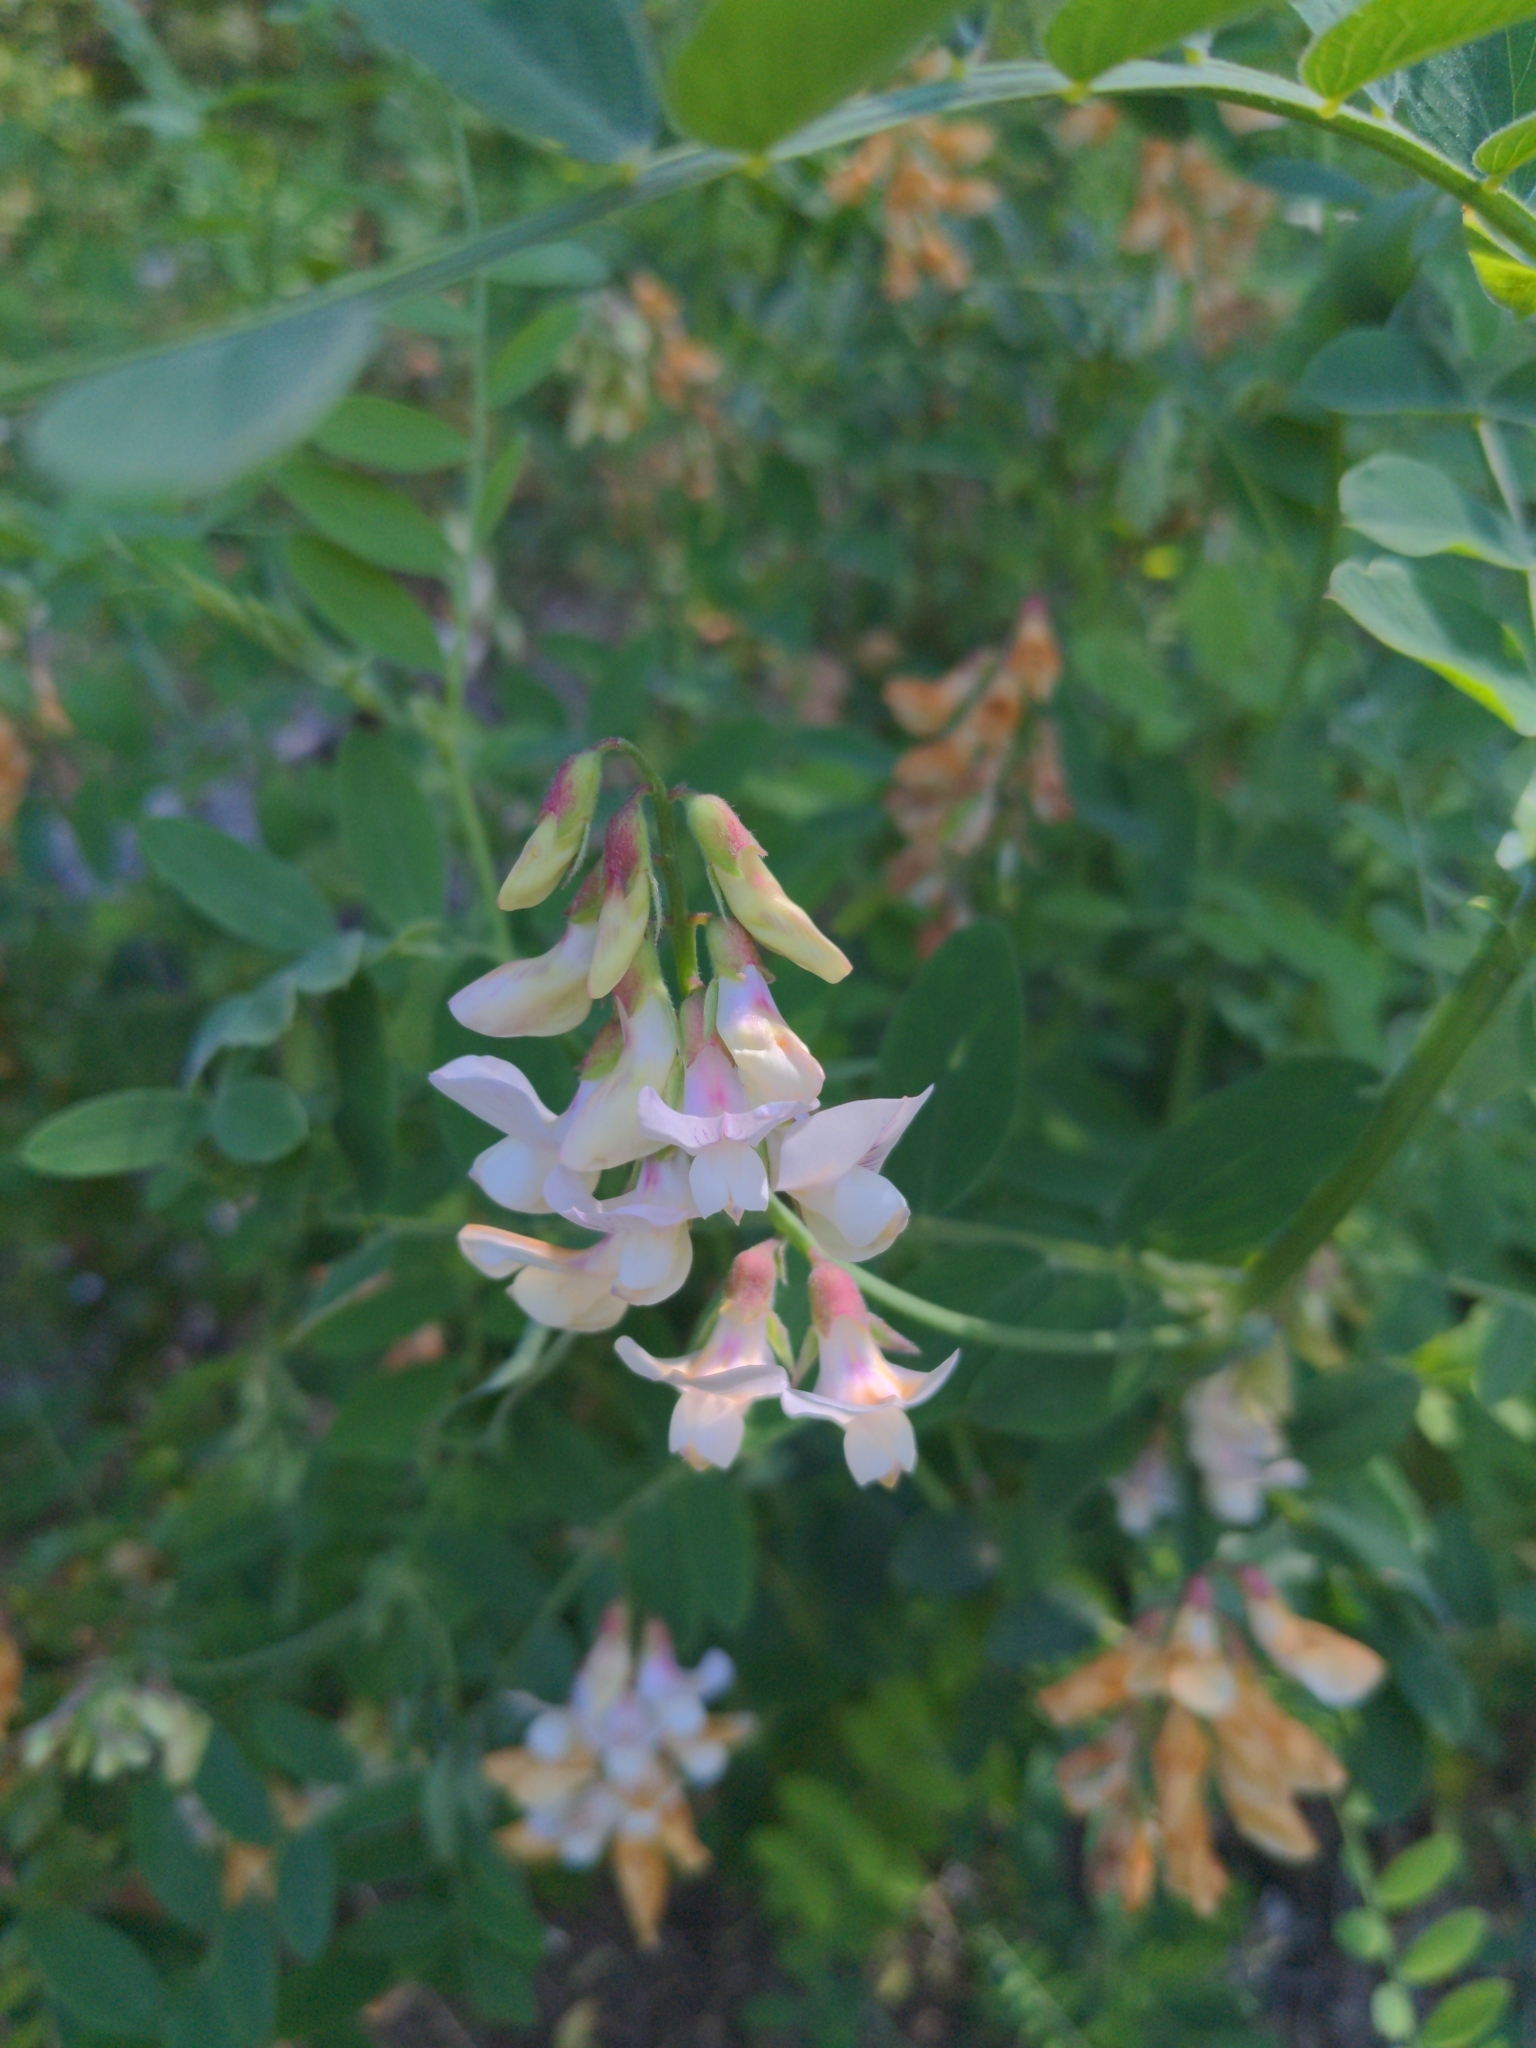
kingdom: Plantae
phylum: Tracheophyta
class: Magnoliopsida
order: Fabales
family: Fabaceae
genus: Lathyrus
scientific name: Lathyrus vestitus
